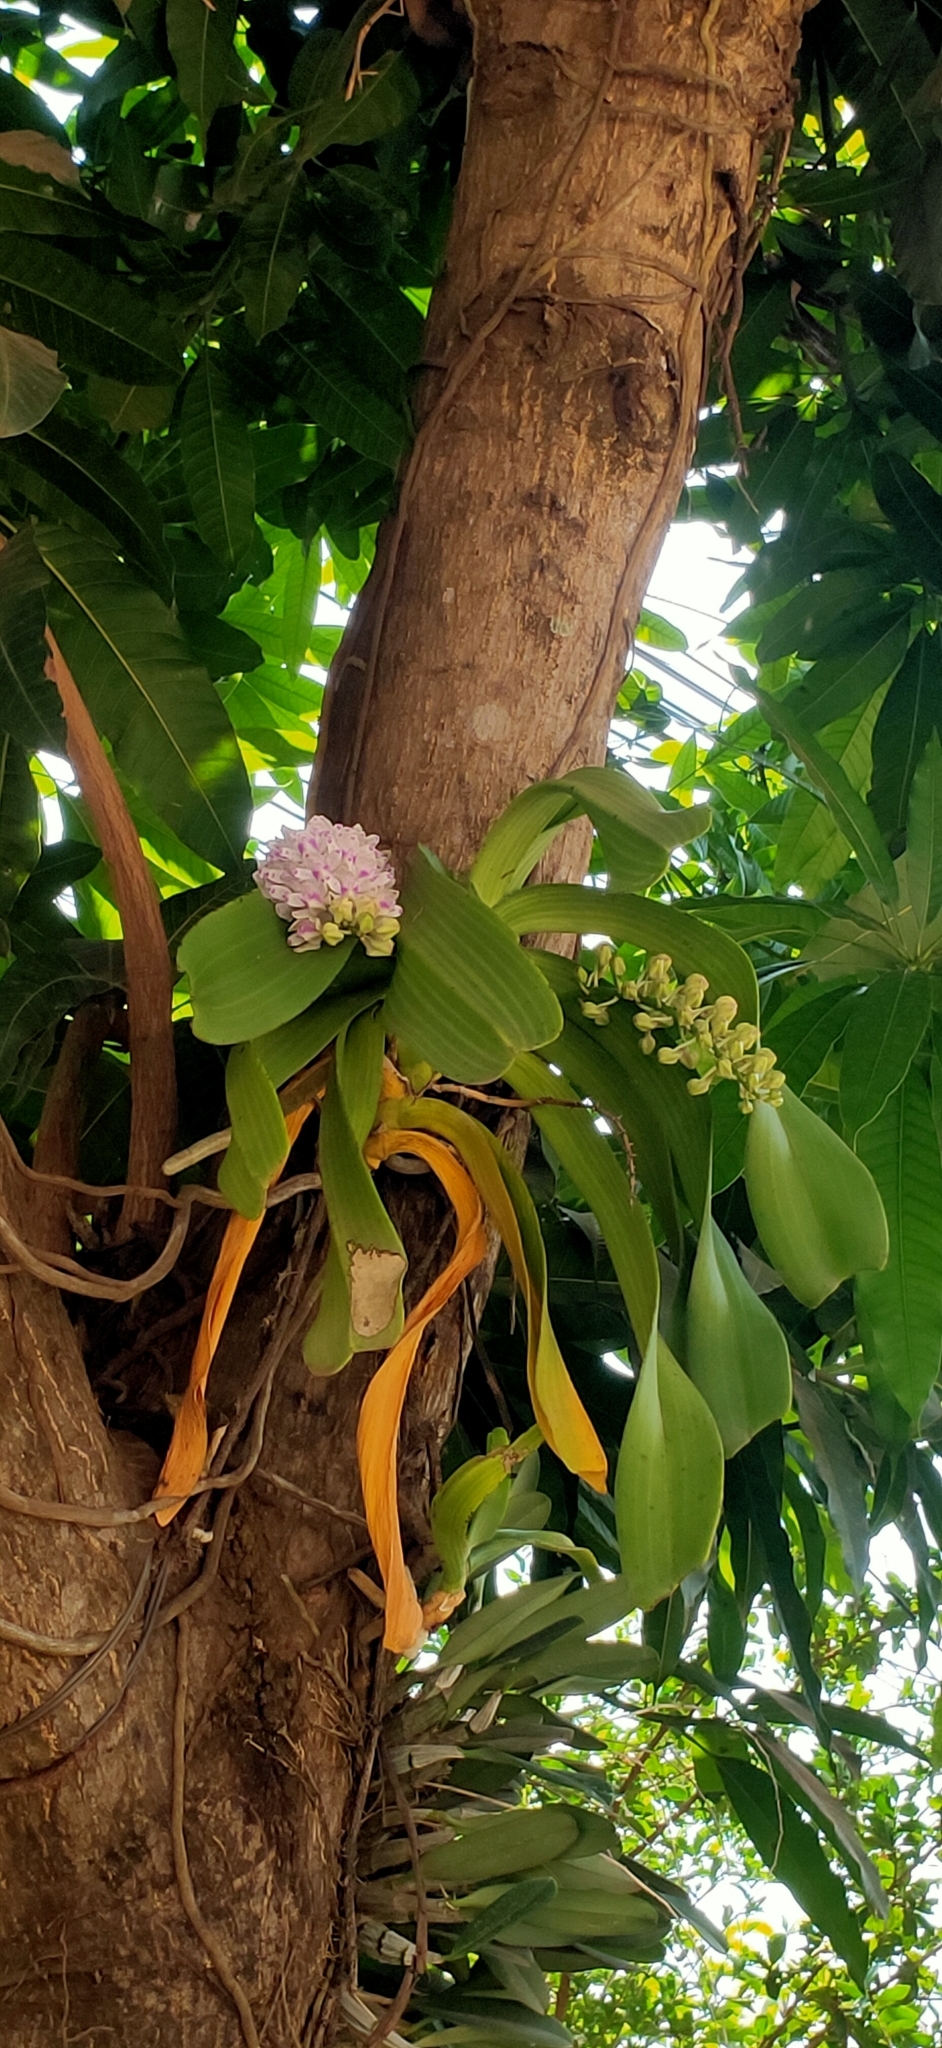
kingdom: Plantae
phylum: Tracheophyta
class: Liliopsida
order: Asparagales
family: Orchidaceae
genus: Rhynchostylis
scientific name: Rhynchostylis gigantea
